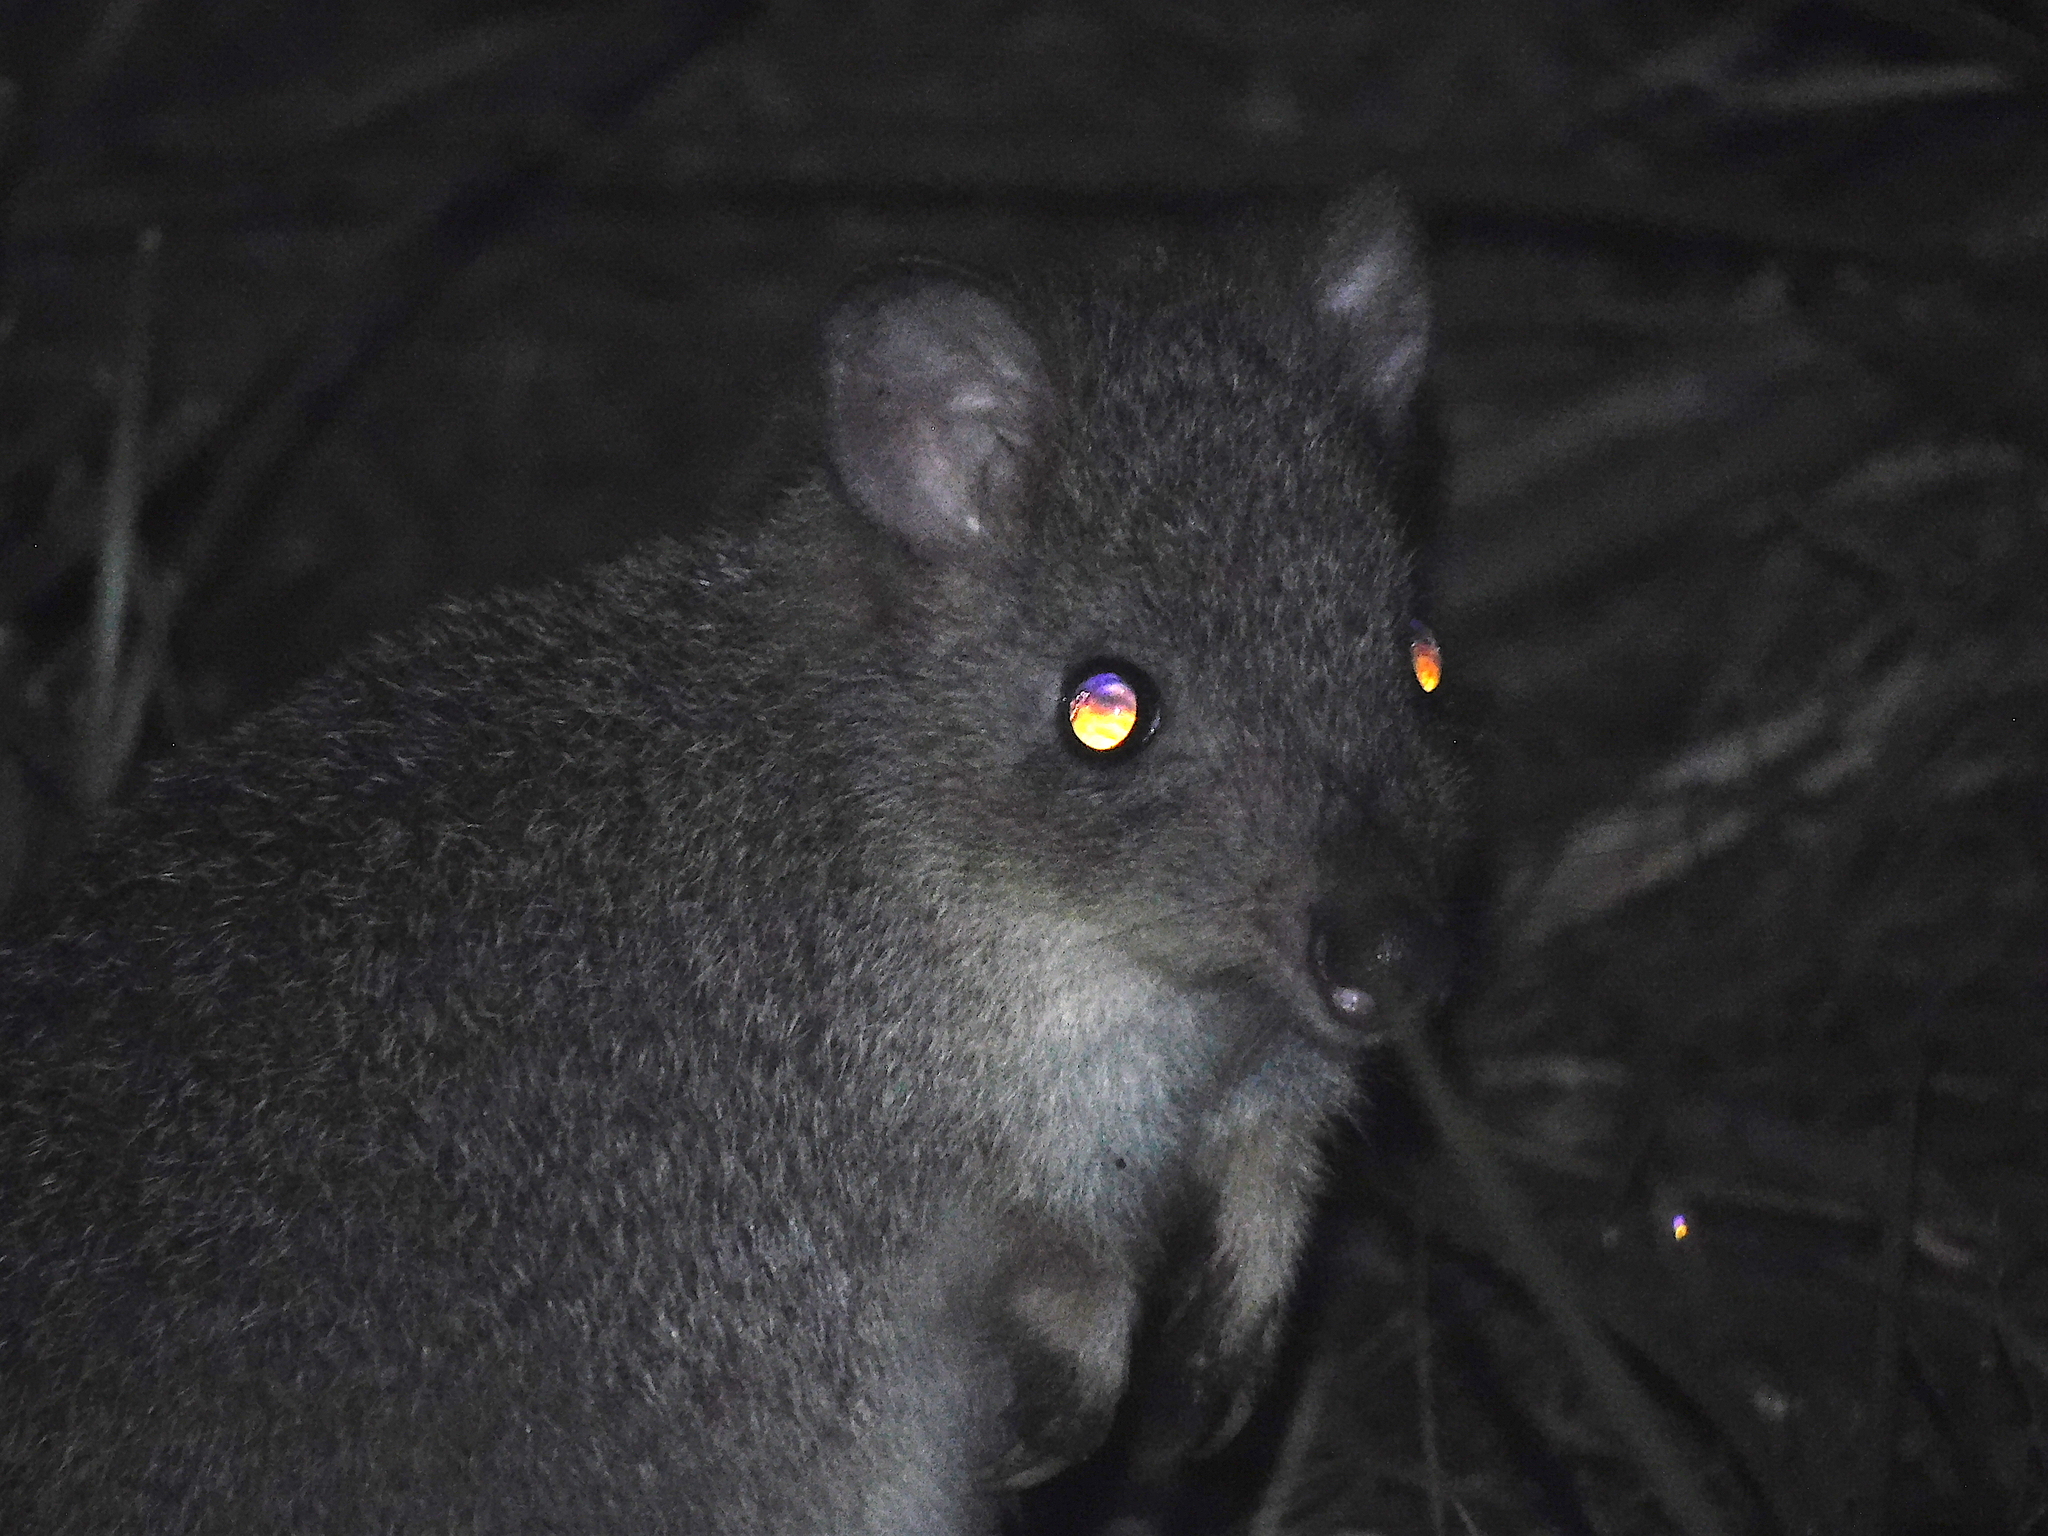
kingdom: Animalia
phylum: Chordata
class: Mammalia
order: Diprotodontia
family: Potoroidae
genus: Bettongia
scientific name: Bettongia gaimardi
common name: Eastern bettong
